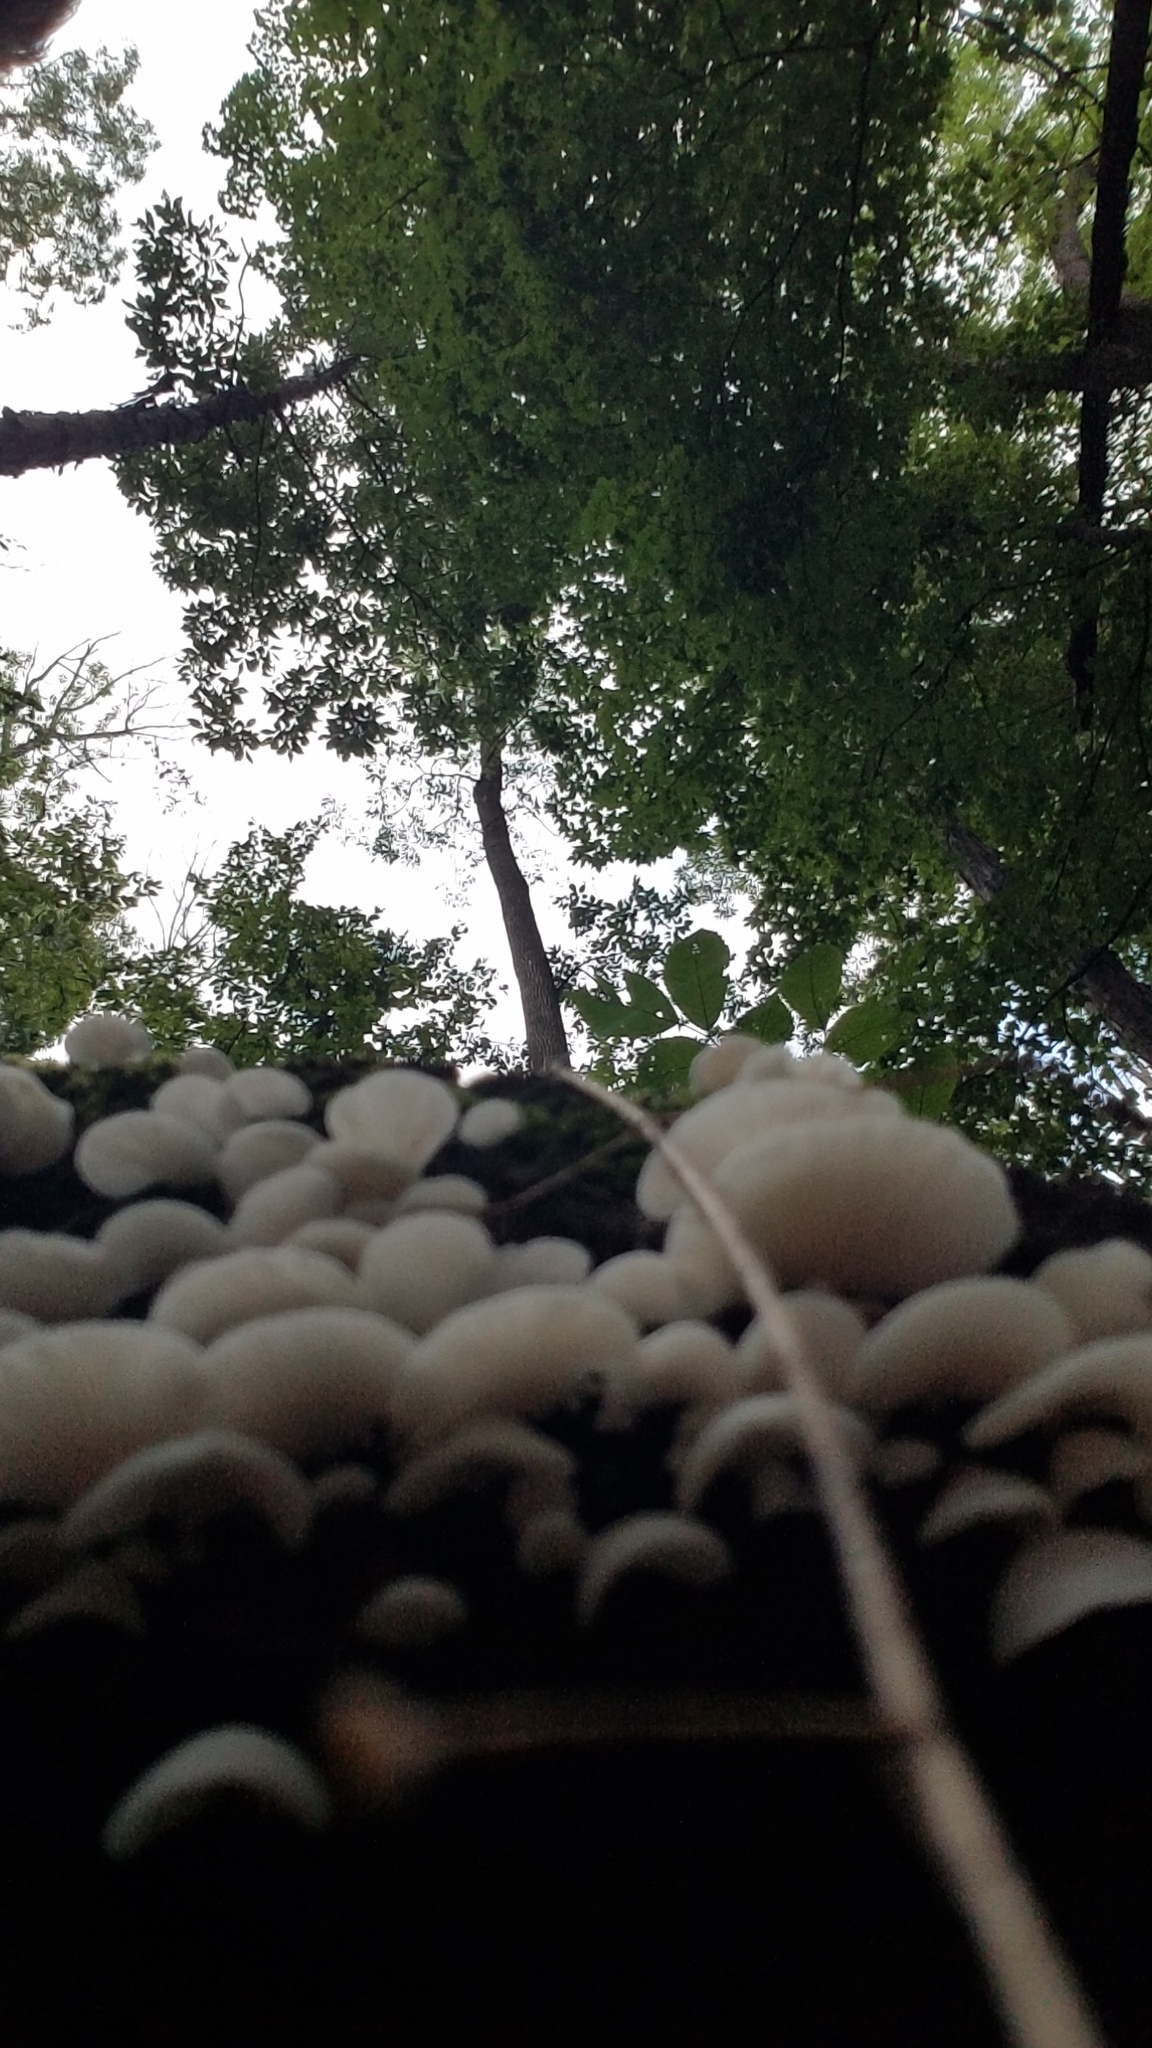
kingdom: Fungi
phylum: Basidiomycota
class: Agaricomycetes
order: Agaricales
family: Crepidotaceae
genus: Crepidotus
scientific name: Crepidotus applanatus
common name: Flat crep
